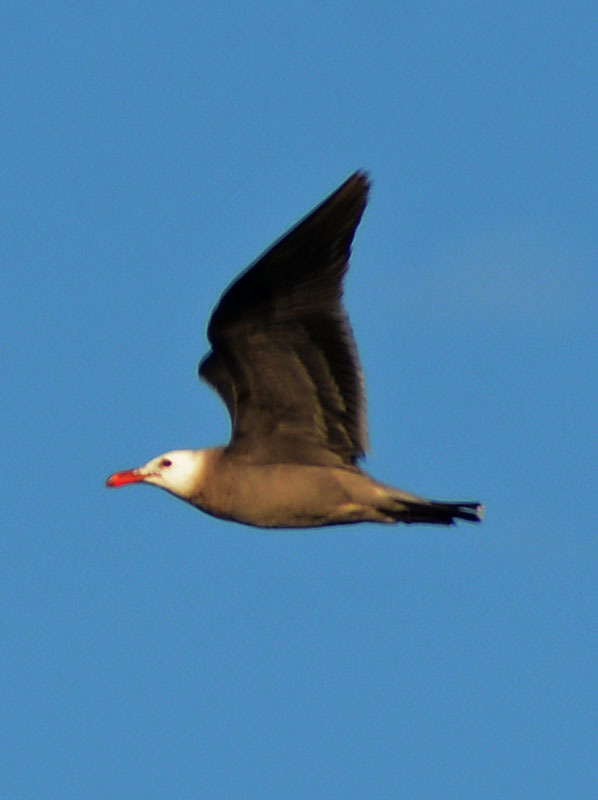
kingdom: Animalia
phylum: Chordata
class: Aves
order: Charadriiformes
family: Laridae
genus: Larus
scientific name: Larus heermanni
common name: Heermann's gull
